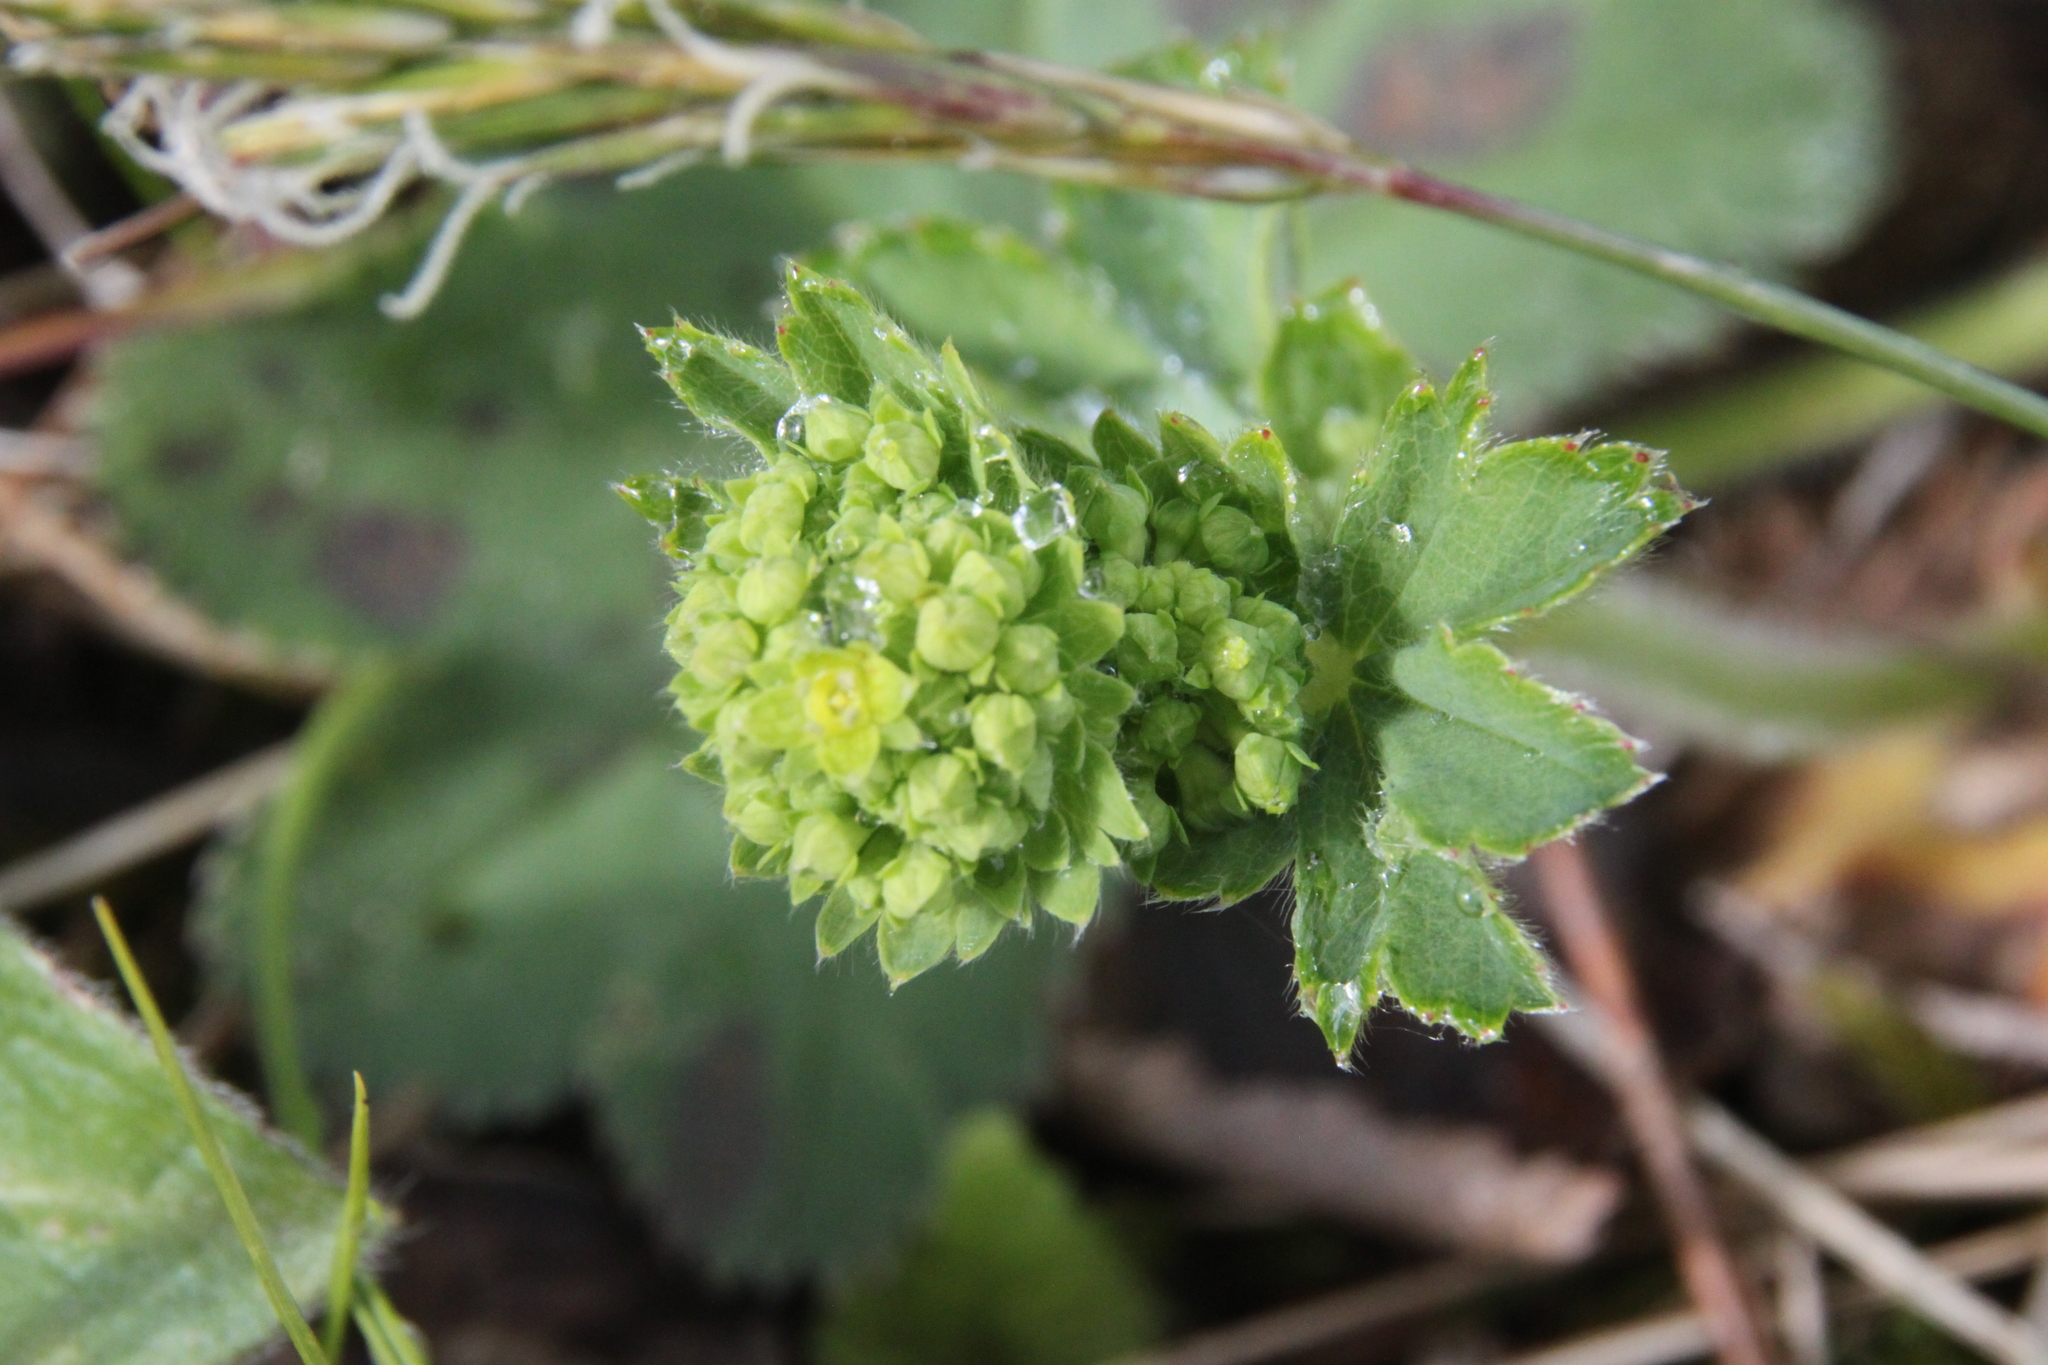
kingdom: Plantae
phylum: Tracheophyta
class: Magnoliopsida
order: Rosales
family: Rosaceae
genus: Alchemilla
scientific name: Alchemilla
